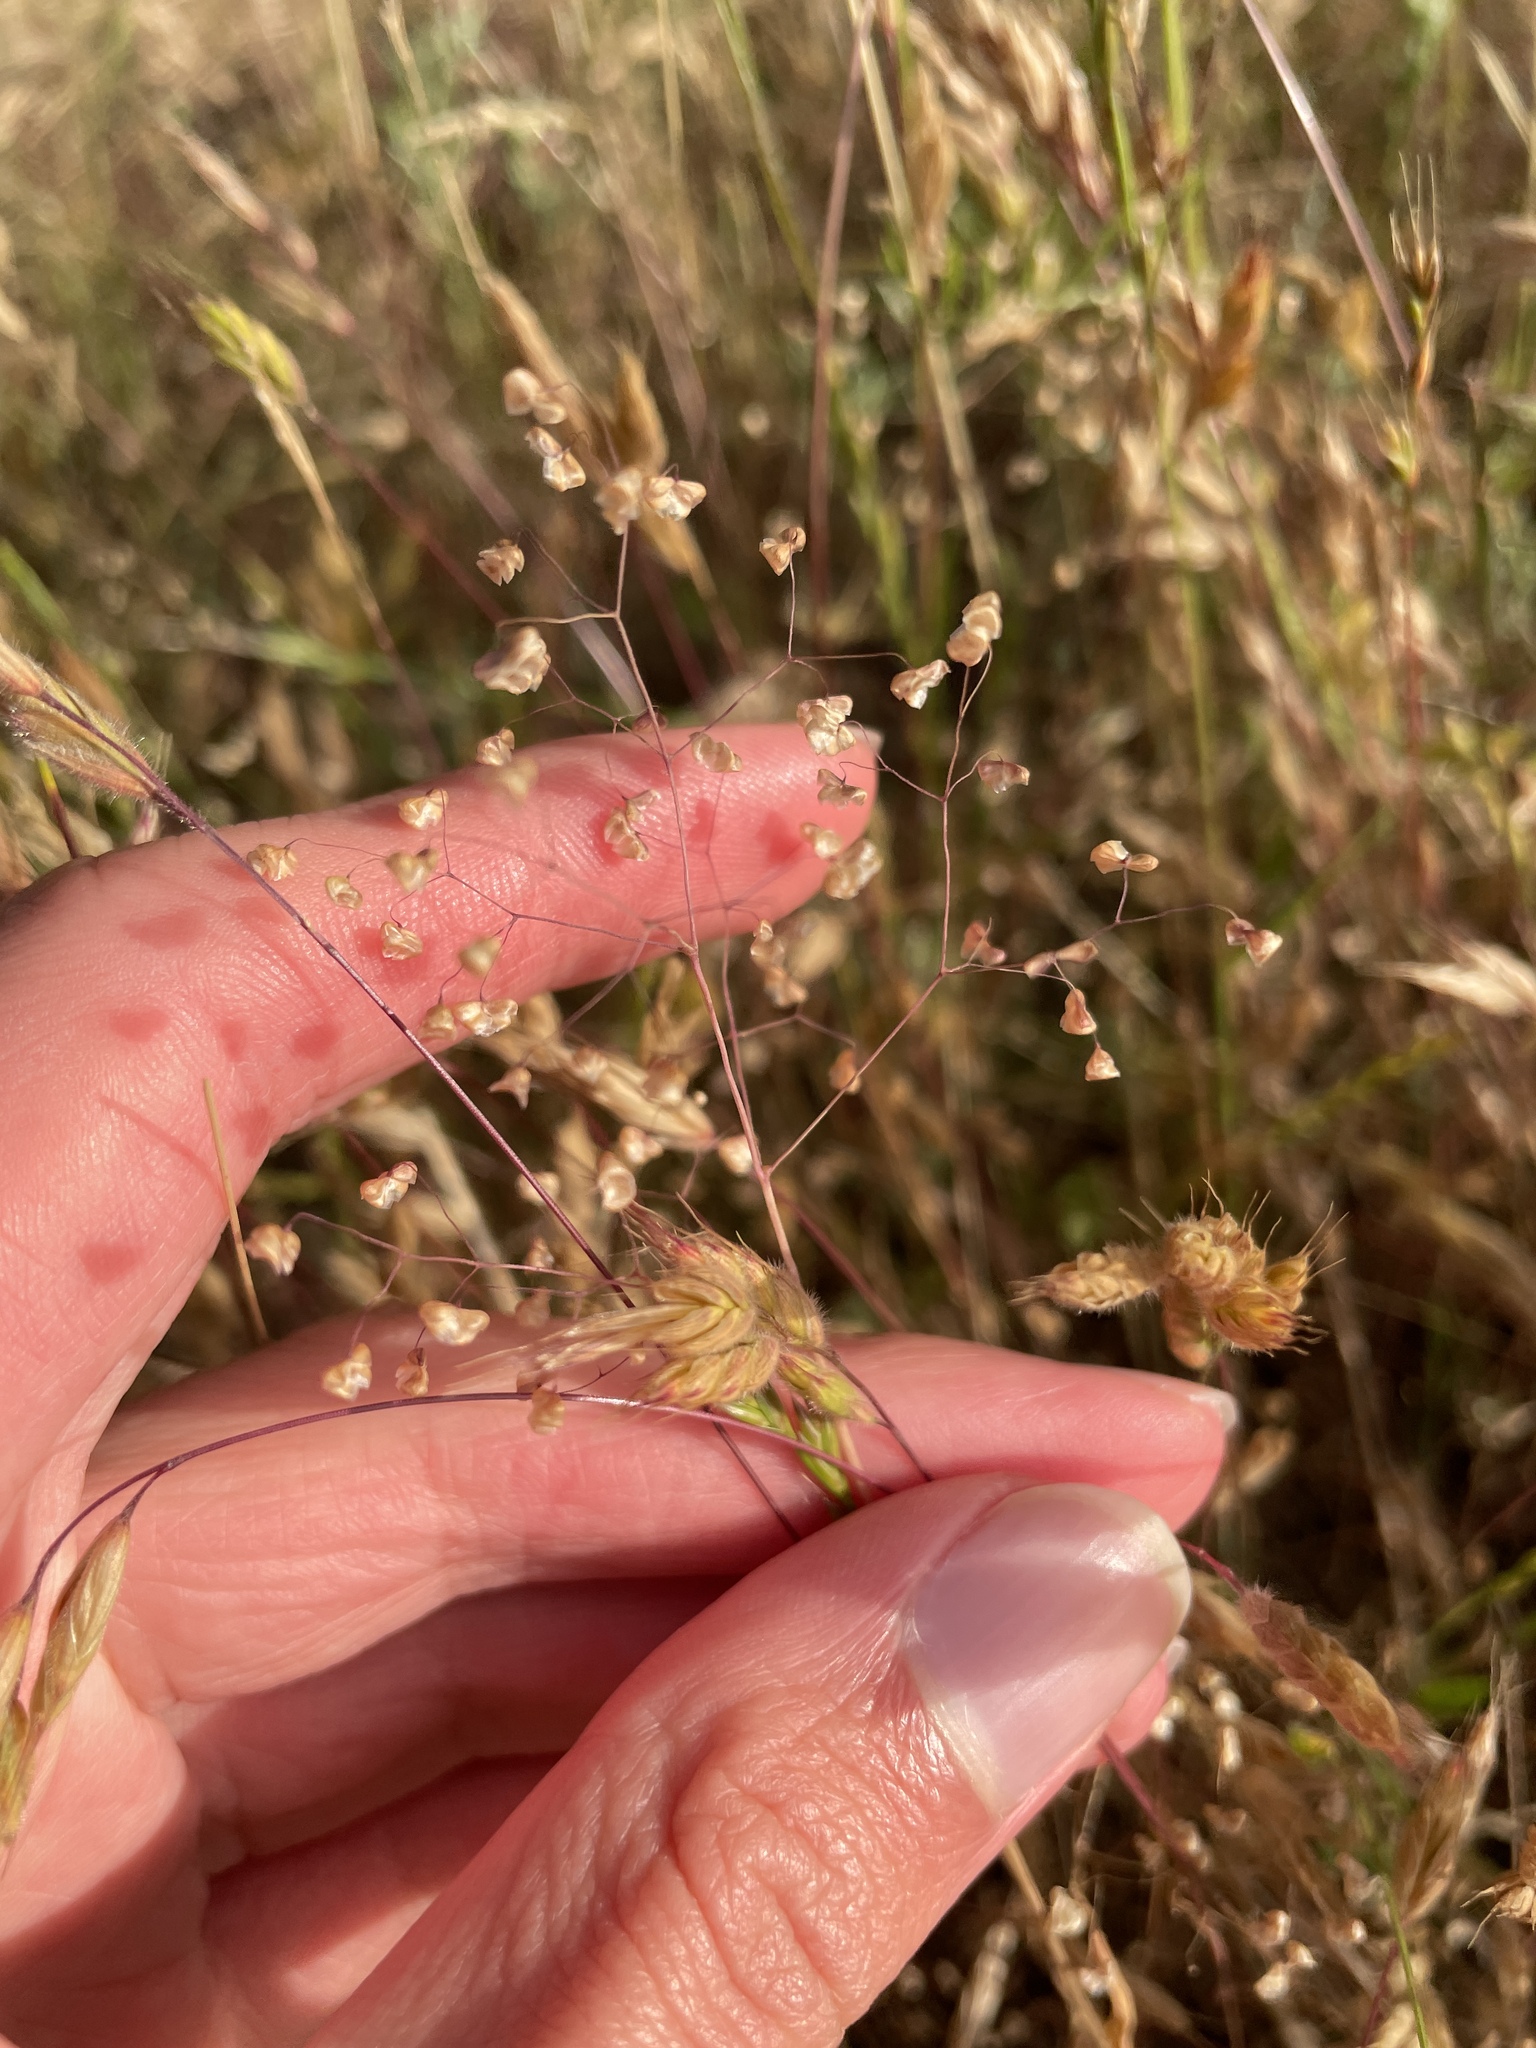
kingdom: Plantae
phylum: Tracheophyta
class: Liliopsida
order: Poales
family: Poaceae
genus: Briza
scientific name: Briza minor
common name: Lesser quaking-grass
